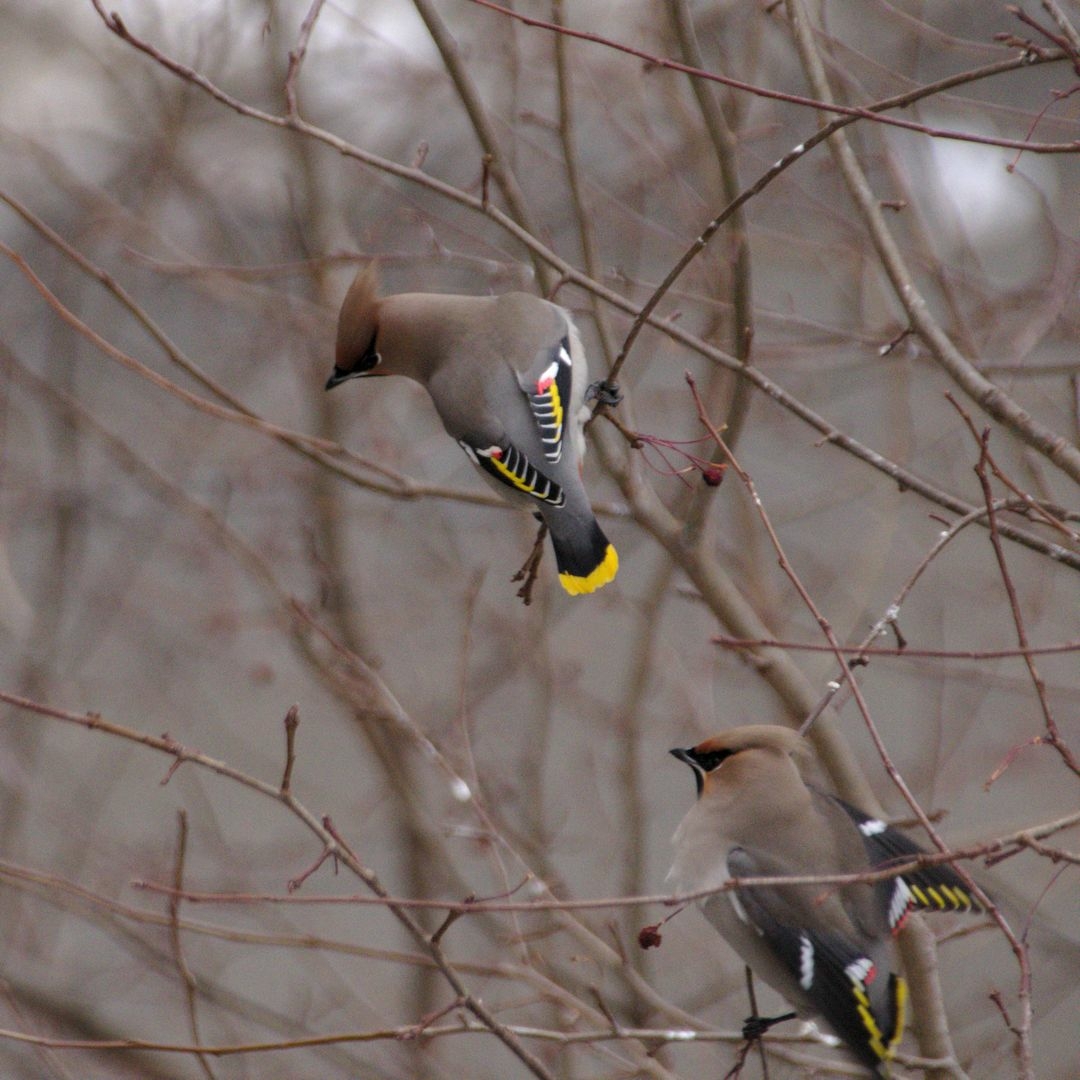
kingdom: Animalia
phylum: Chordata
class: Aves
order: Passeriformes
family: Bombycillidae
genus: Bombycilla
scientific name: Bombycilla garrulus
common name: Bohemian waxwing
